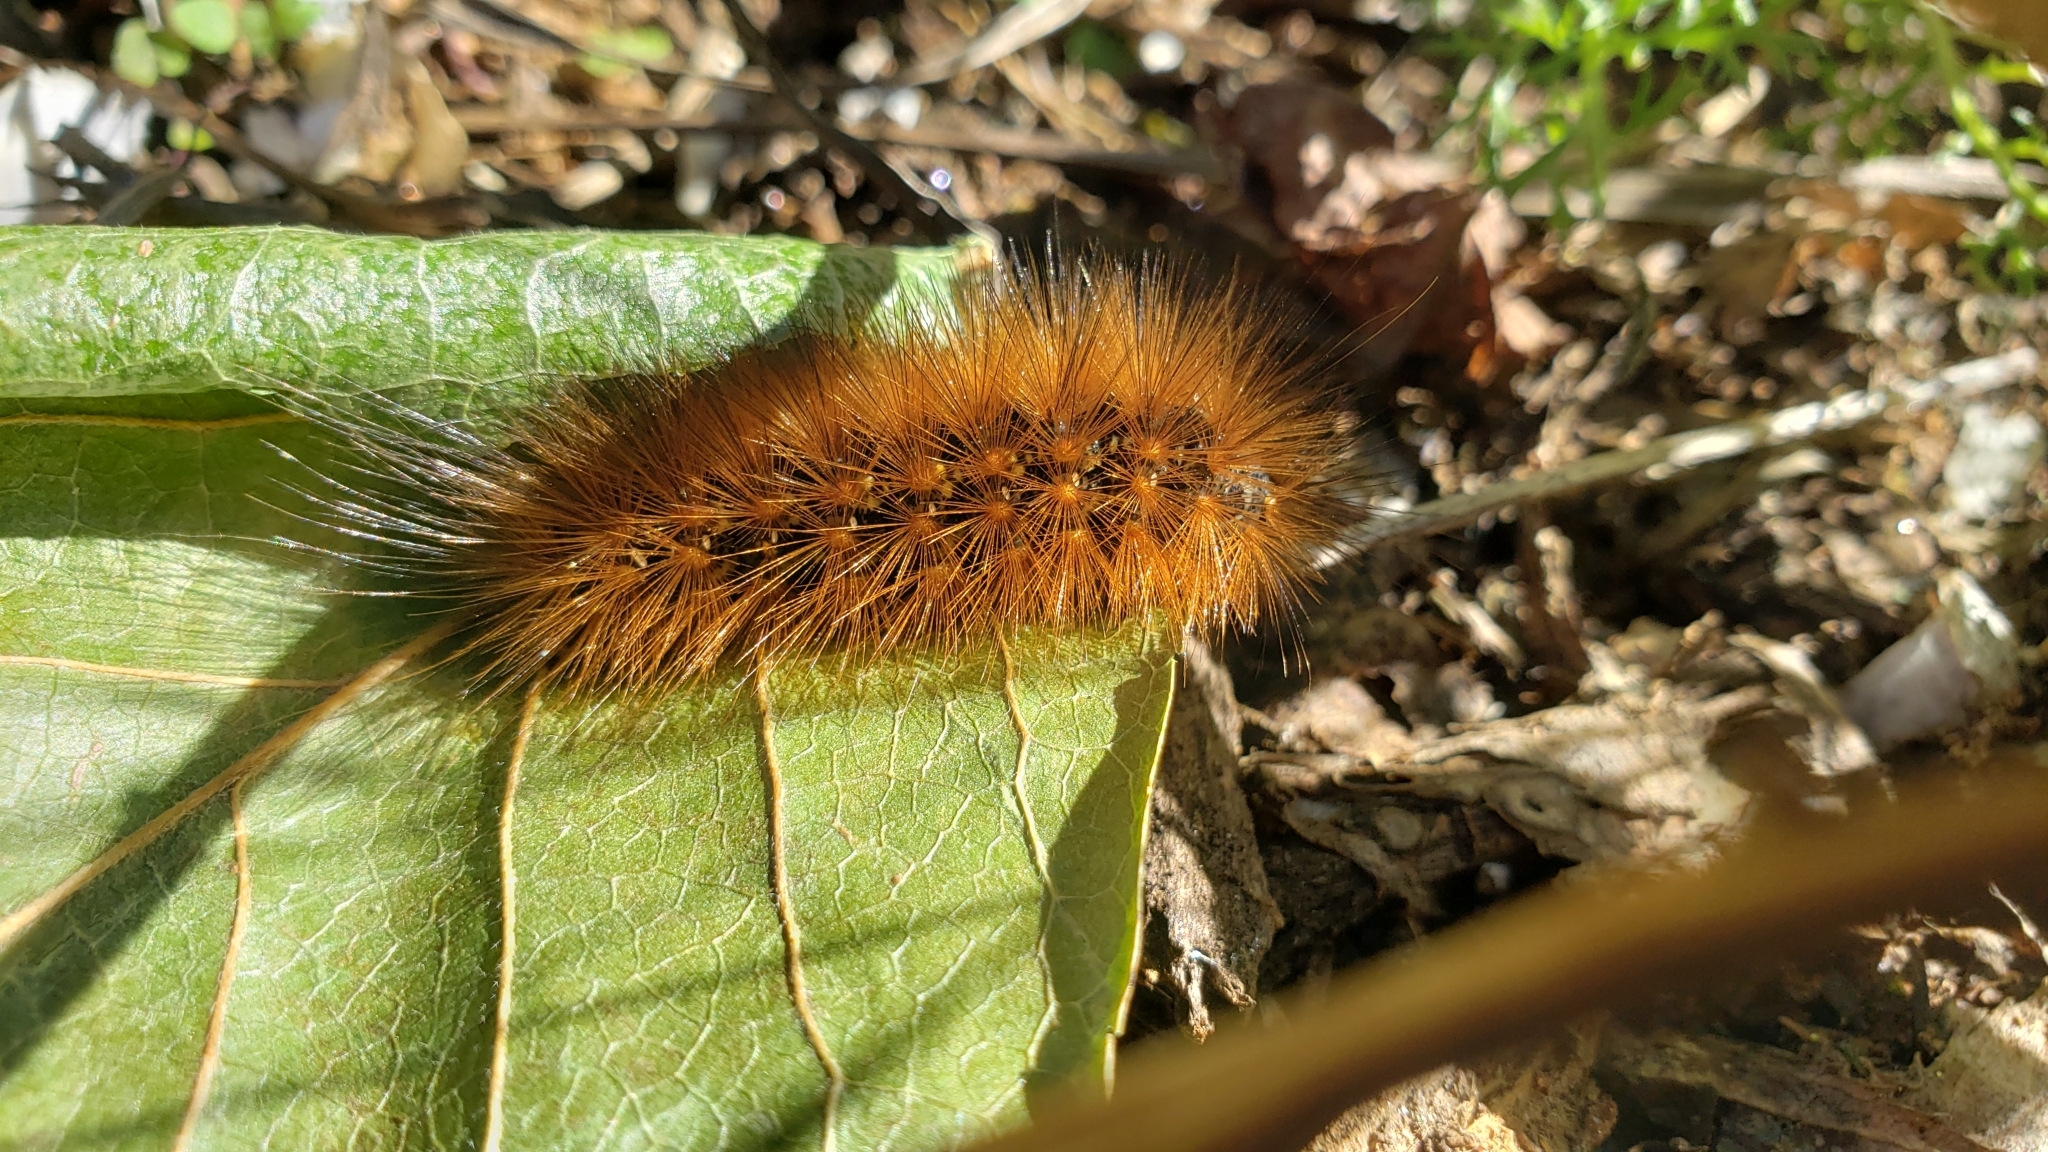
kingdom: Animalia
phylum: Arthropoda
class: Insecta
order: Lepidoptera
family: Erebidae
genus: Estigmene
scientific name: Estigmene acrea
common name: Salt marsh moth
